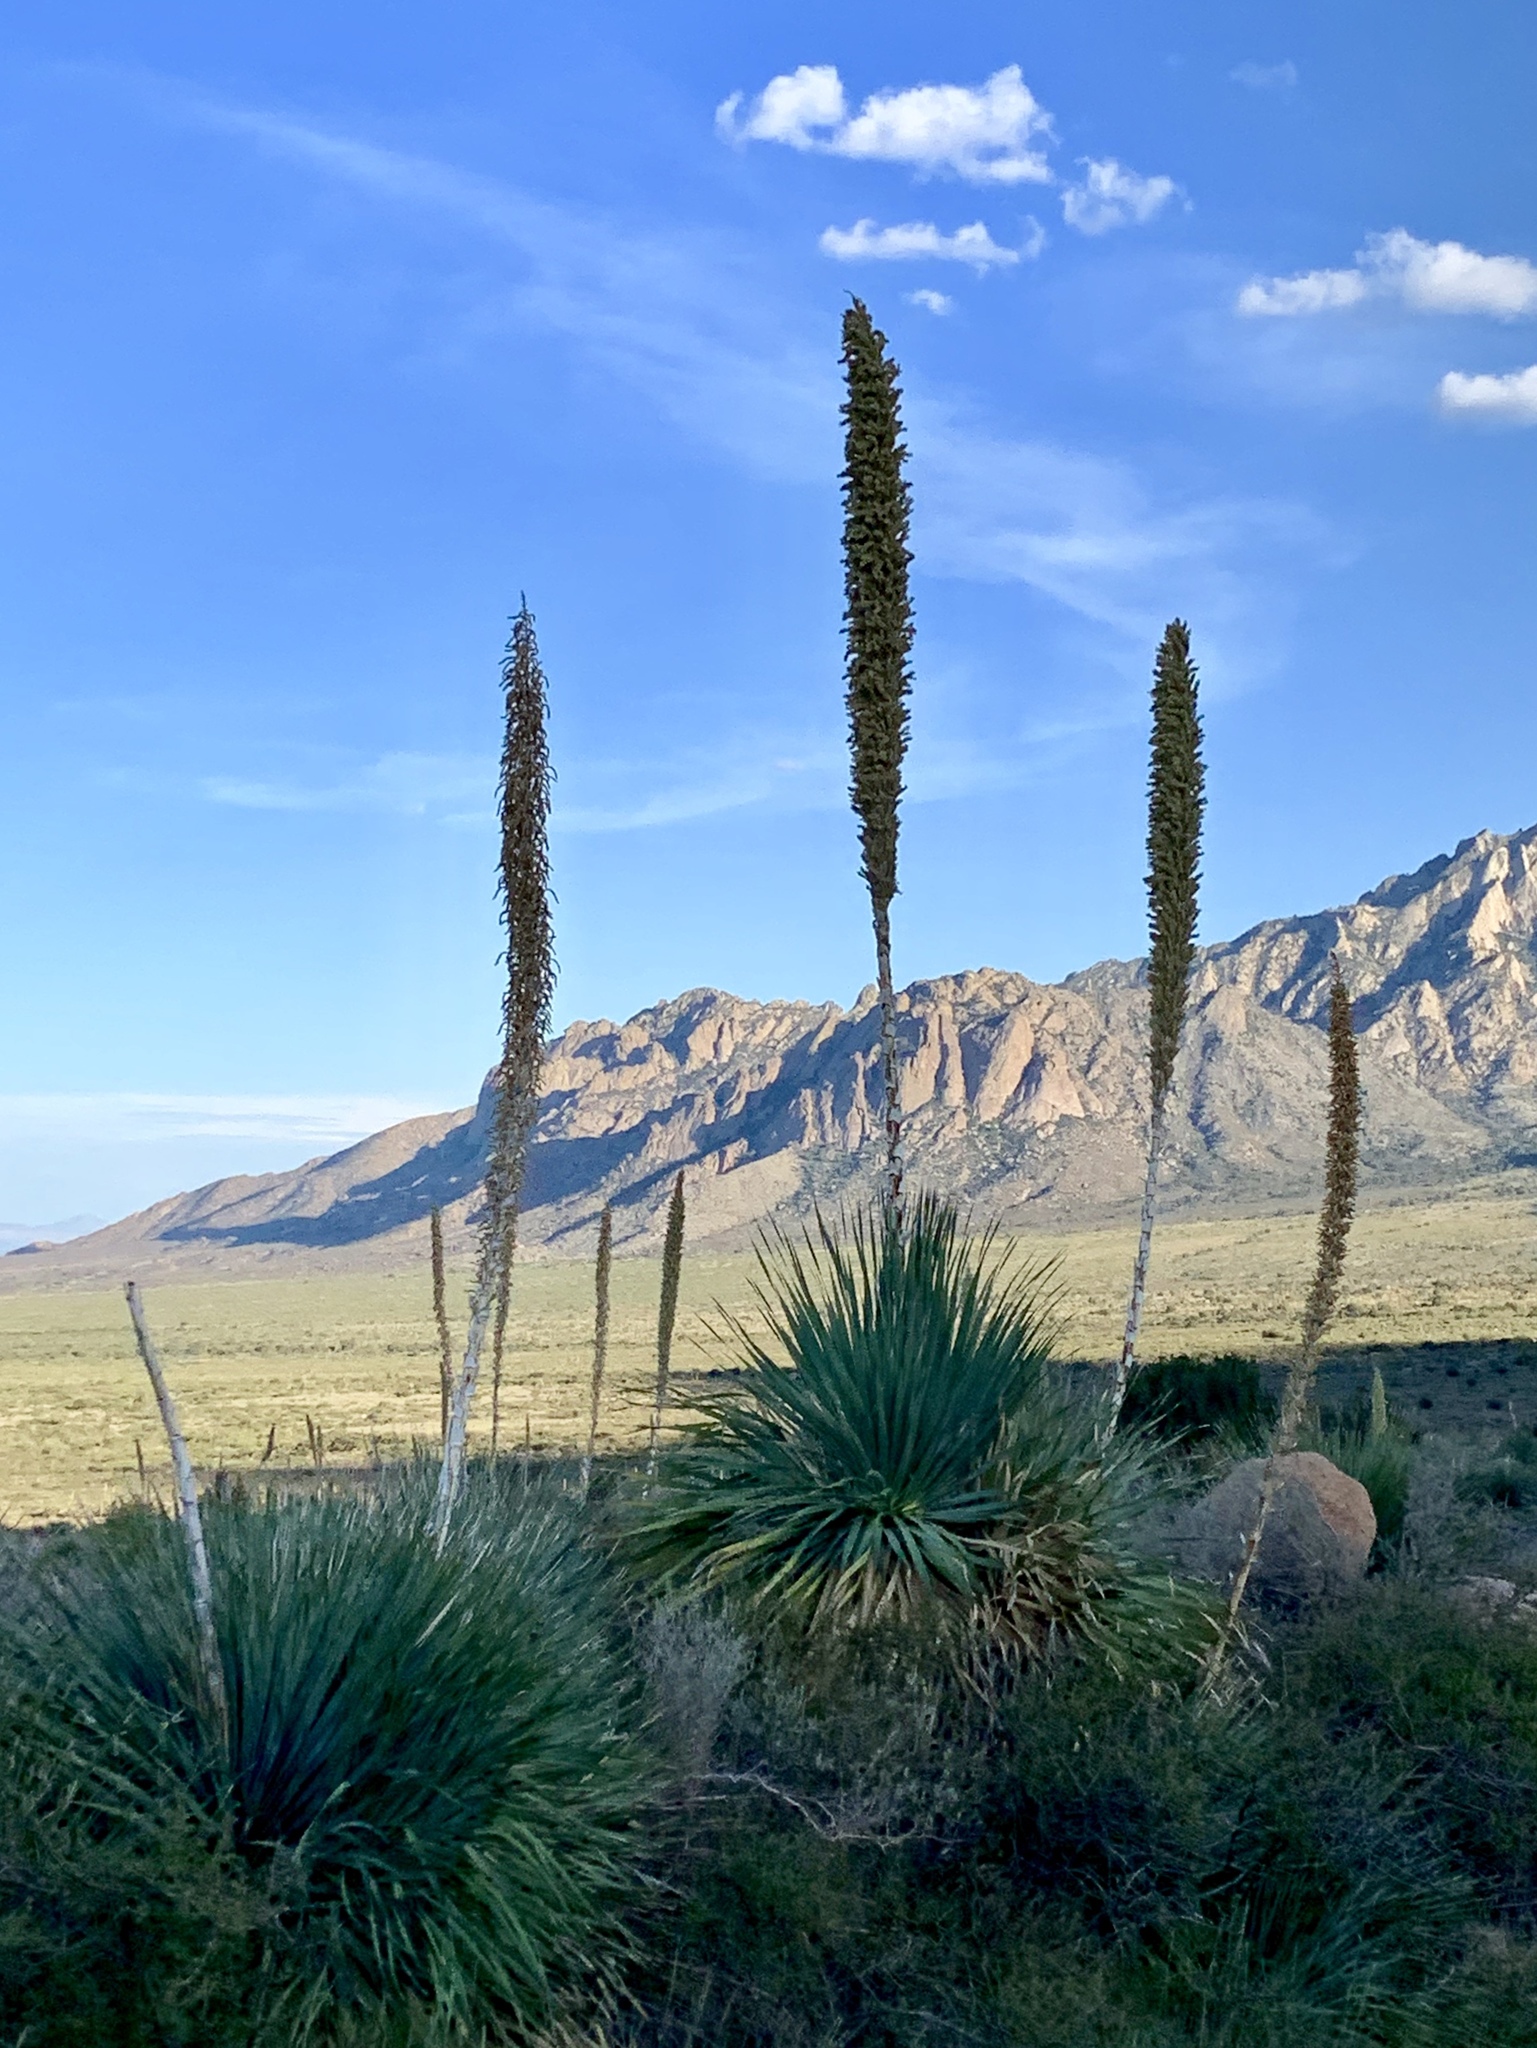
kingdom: Plantae
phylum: Tracheophyta
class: Liliopsida
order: Asparagales
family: Asparagaceae
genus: Dasylirion
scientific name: Dasylirion wheeleri
